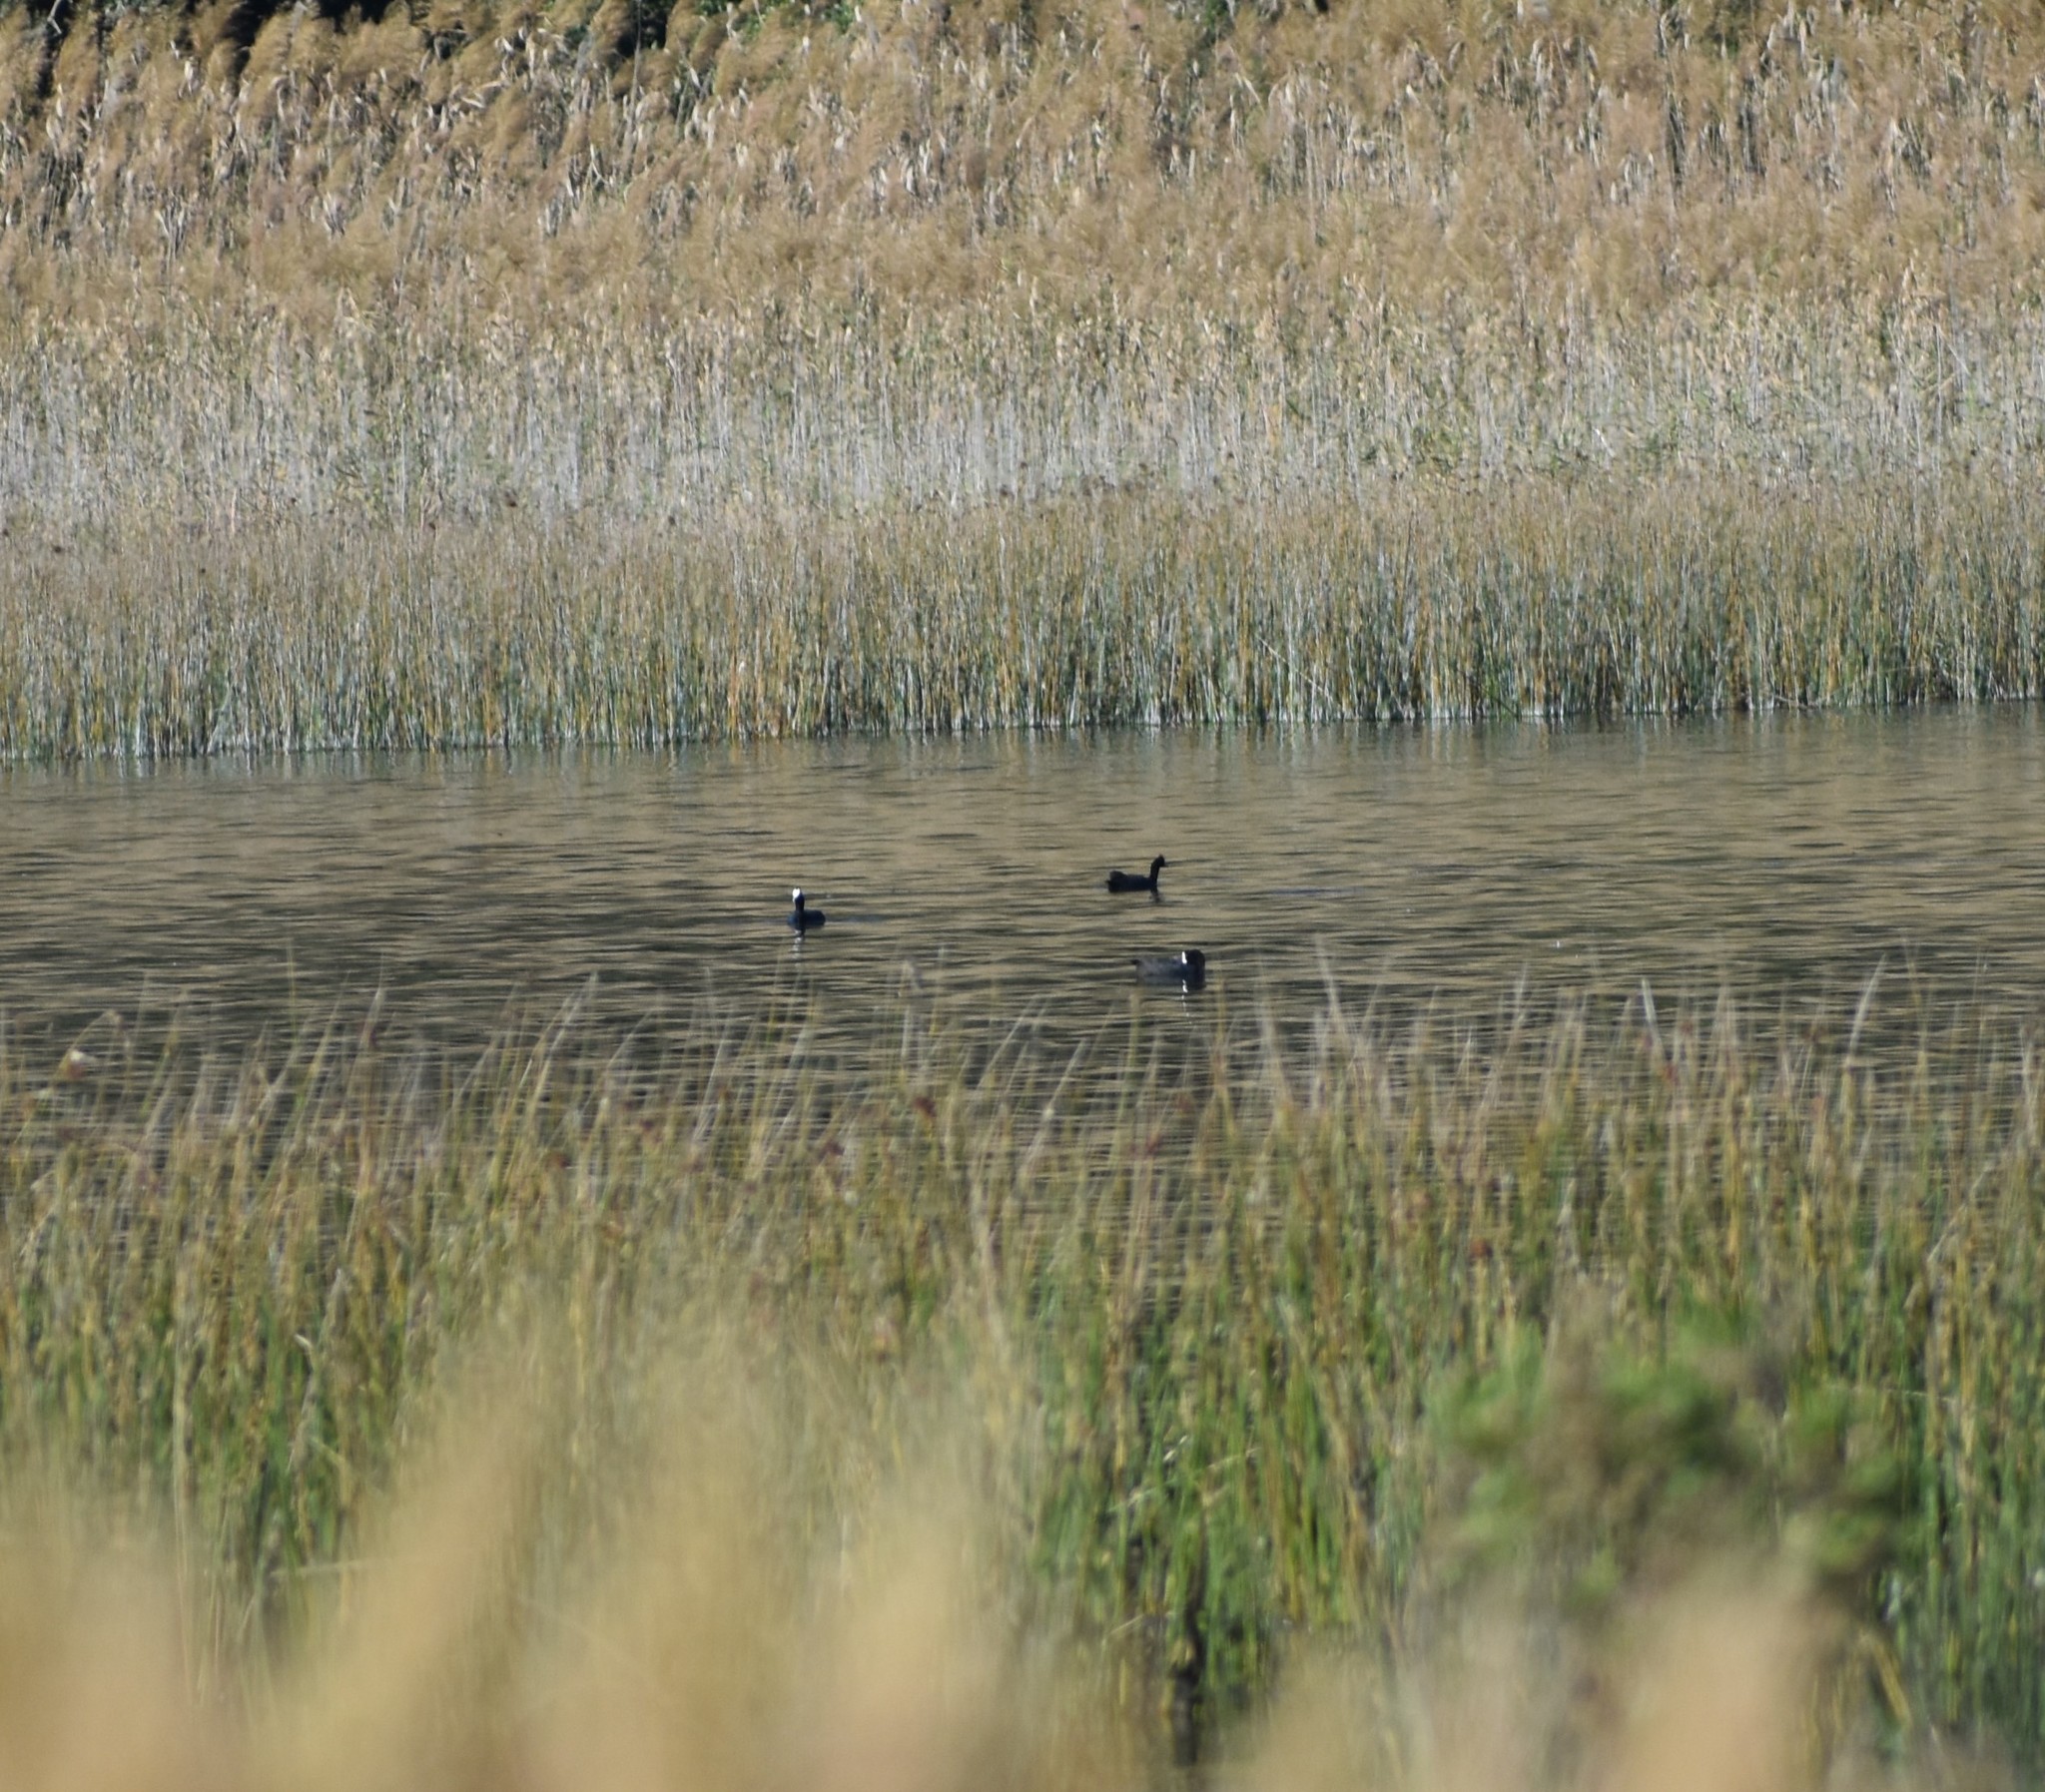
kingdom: Animalia
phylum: Chordata
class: Aves
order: Gruiformes
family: Rallidae
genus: Fulica
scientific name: Fulica cristata
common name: Red-knobbed coot
